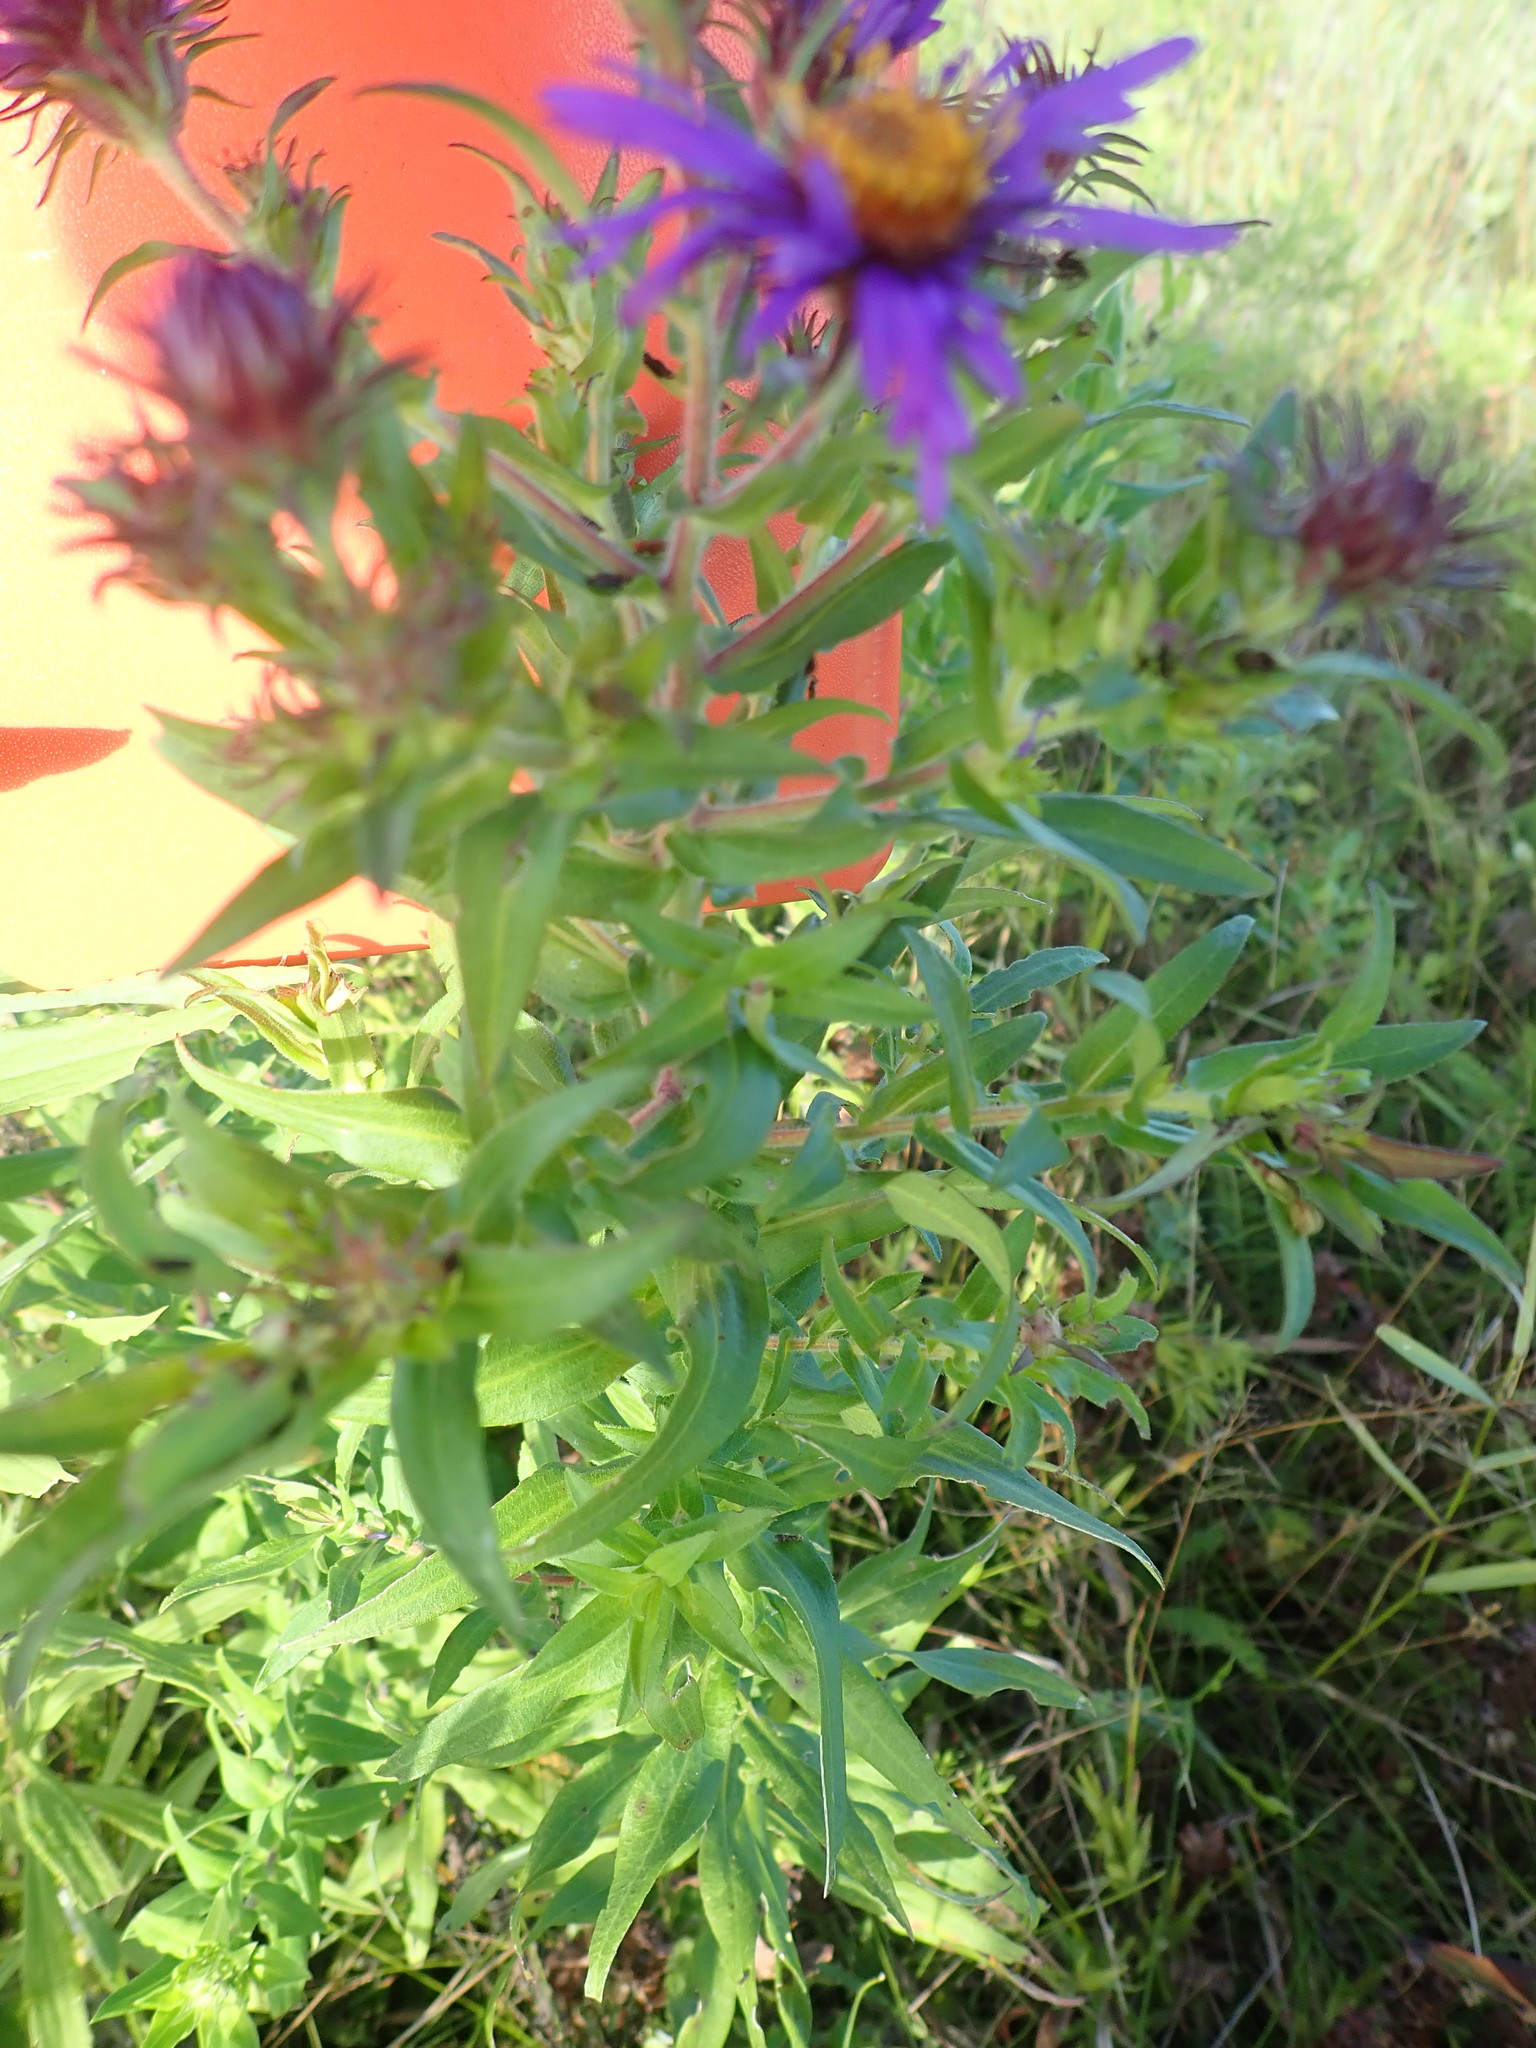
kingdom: Plantae
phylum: Tracheophyta
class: Magnoliopsida
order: Asterales
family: Asteraceae
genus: Symphyotrichum
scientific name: Symphyotrichum novae-angliae
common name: Michaelmas daisy
